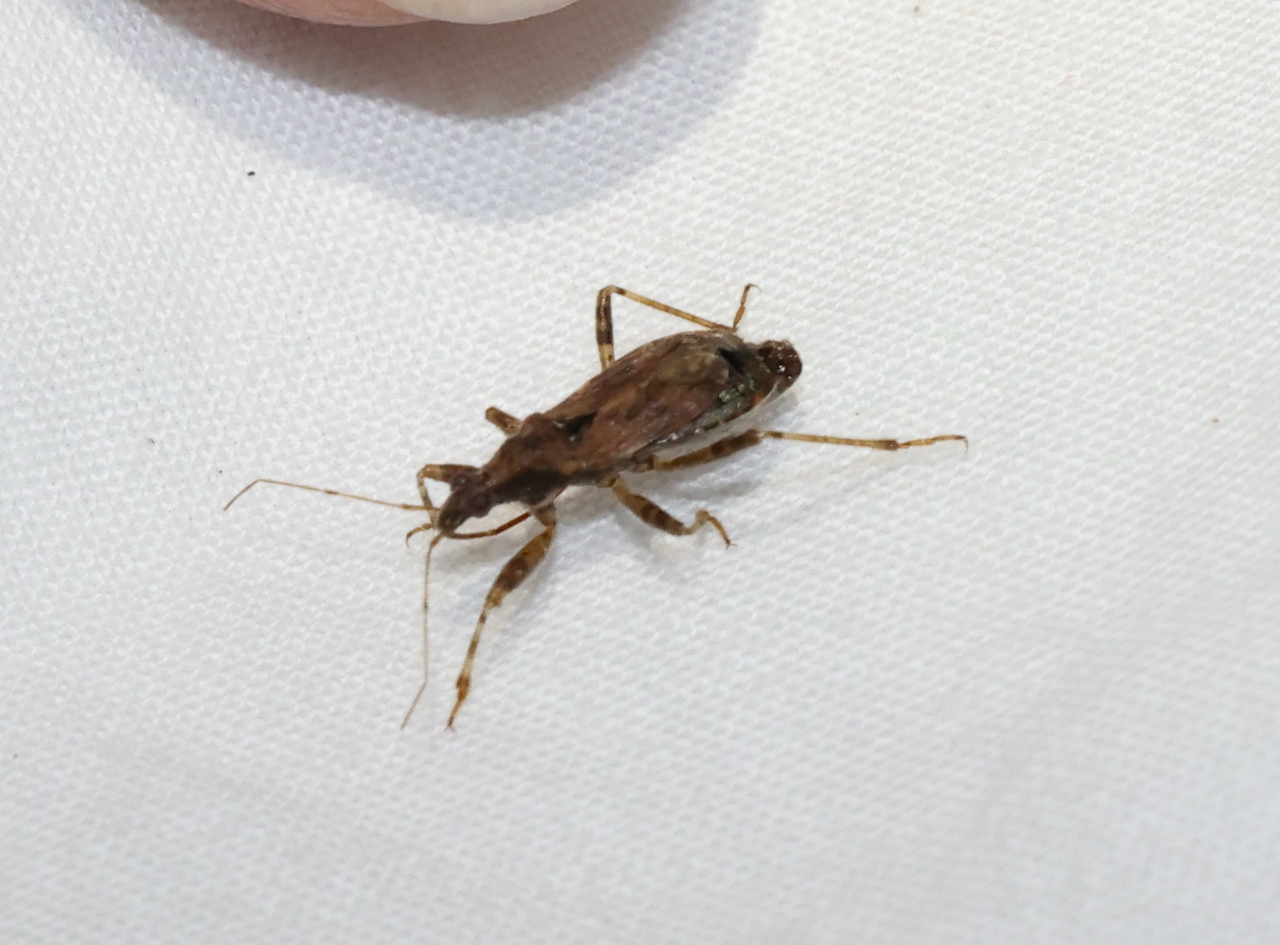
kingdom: Animalia
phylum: Arthropoda
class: Insecta
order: Hemiptera
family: Nabidae
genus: Himacerus
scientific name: Himacerus mirmicoides
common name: Ant damsel bug
